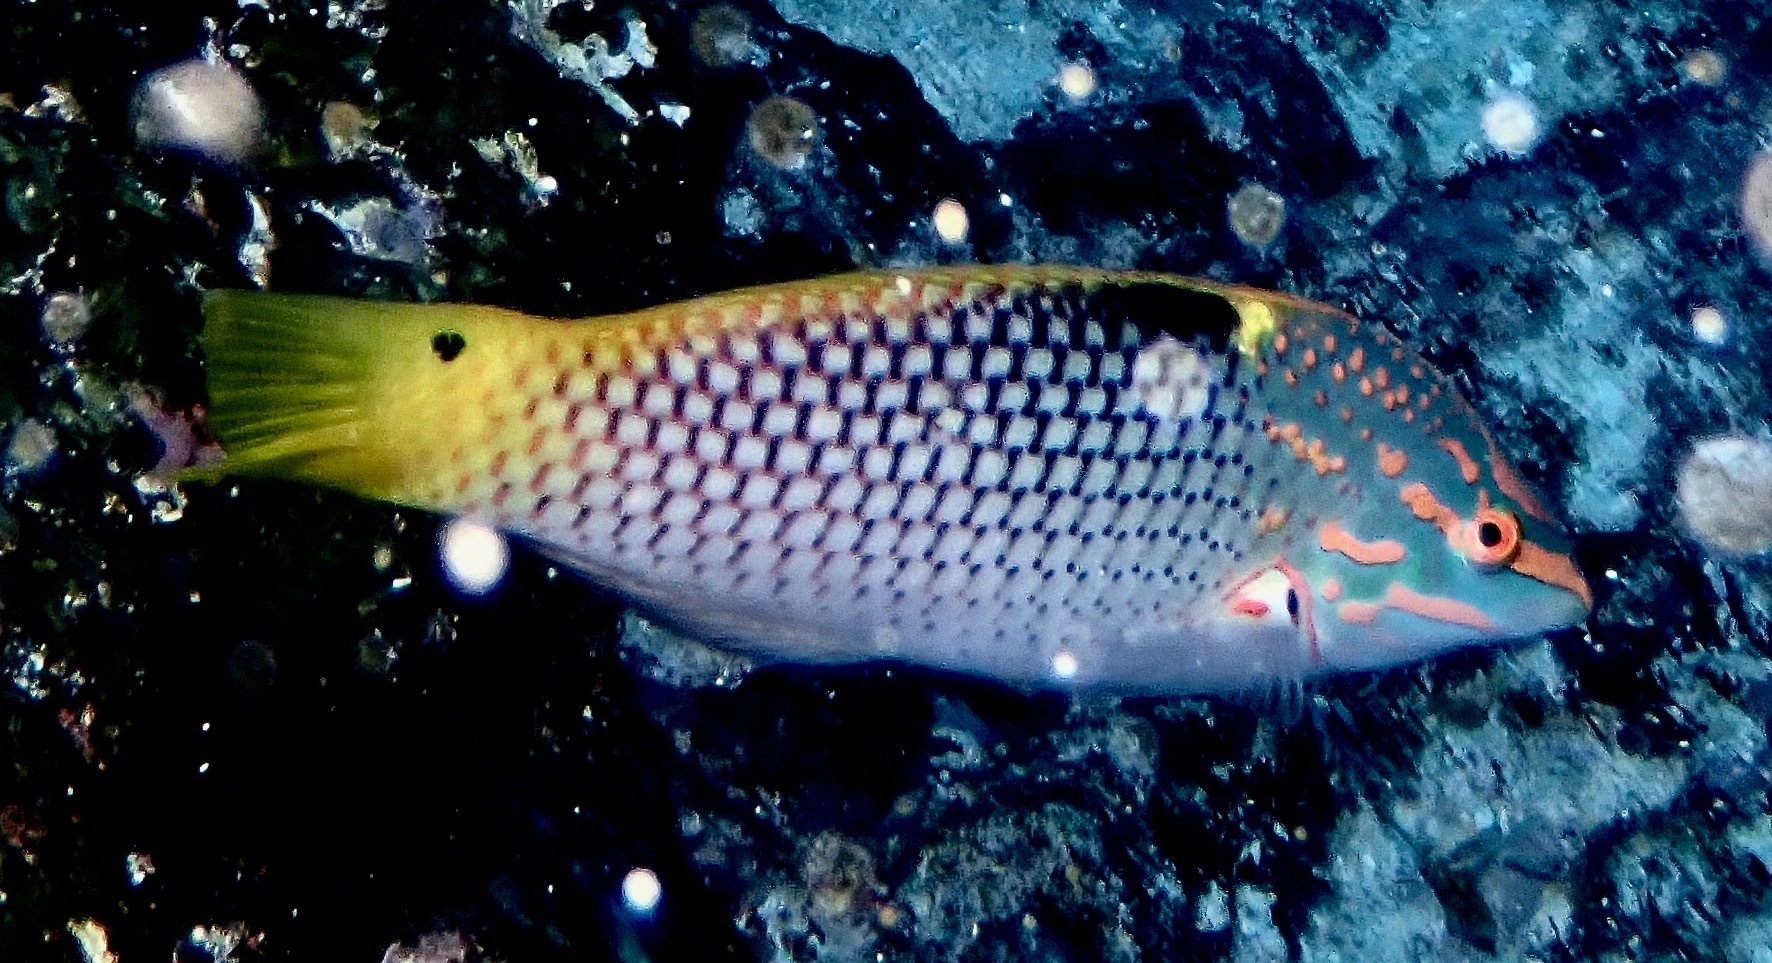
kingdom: Animalia
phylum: Chordata
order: Perciformes
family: Labridae
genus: Halichoeres
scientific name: Halichoeres hortulanus
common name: Checkerboard wrasse
